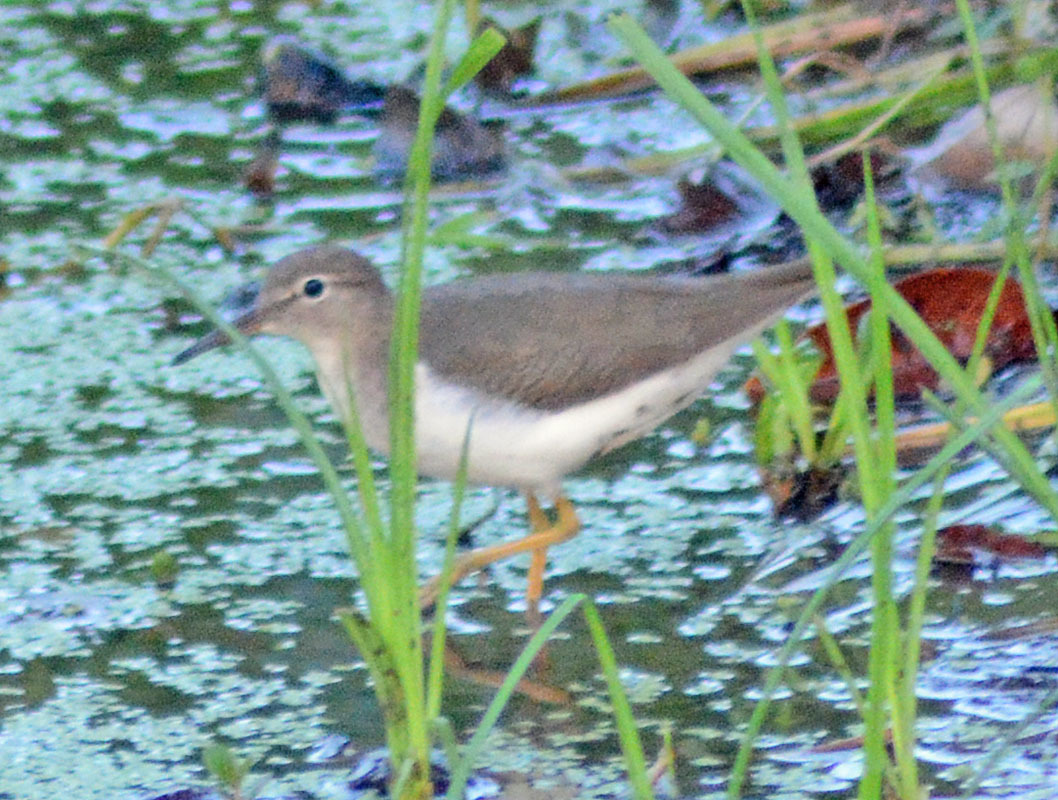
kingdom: Animalia
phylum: Chordata
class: Aves
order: Charadriiformes
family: Scolopacidae
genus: Actitis
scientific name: Actitis macularius
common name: Spotted sandpiper
